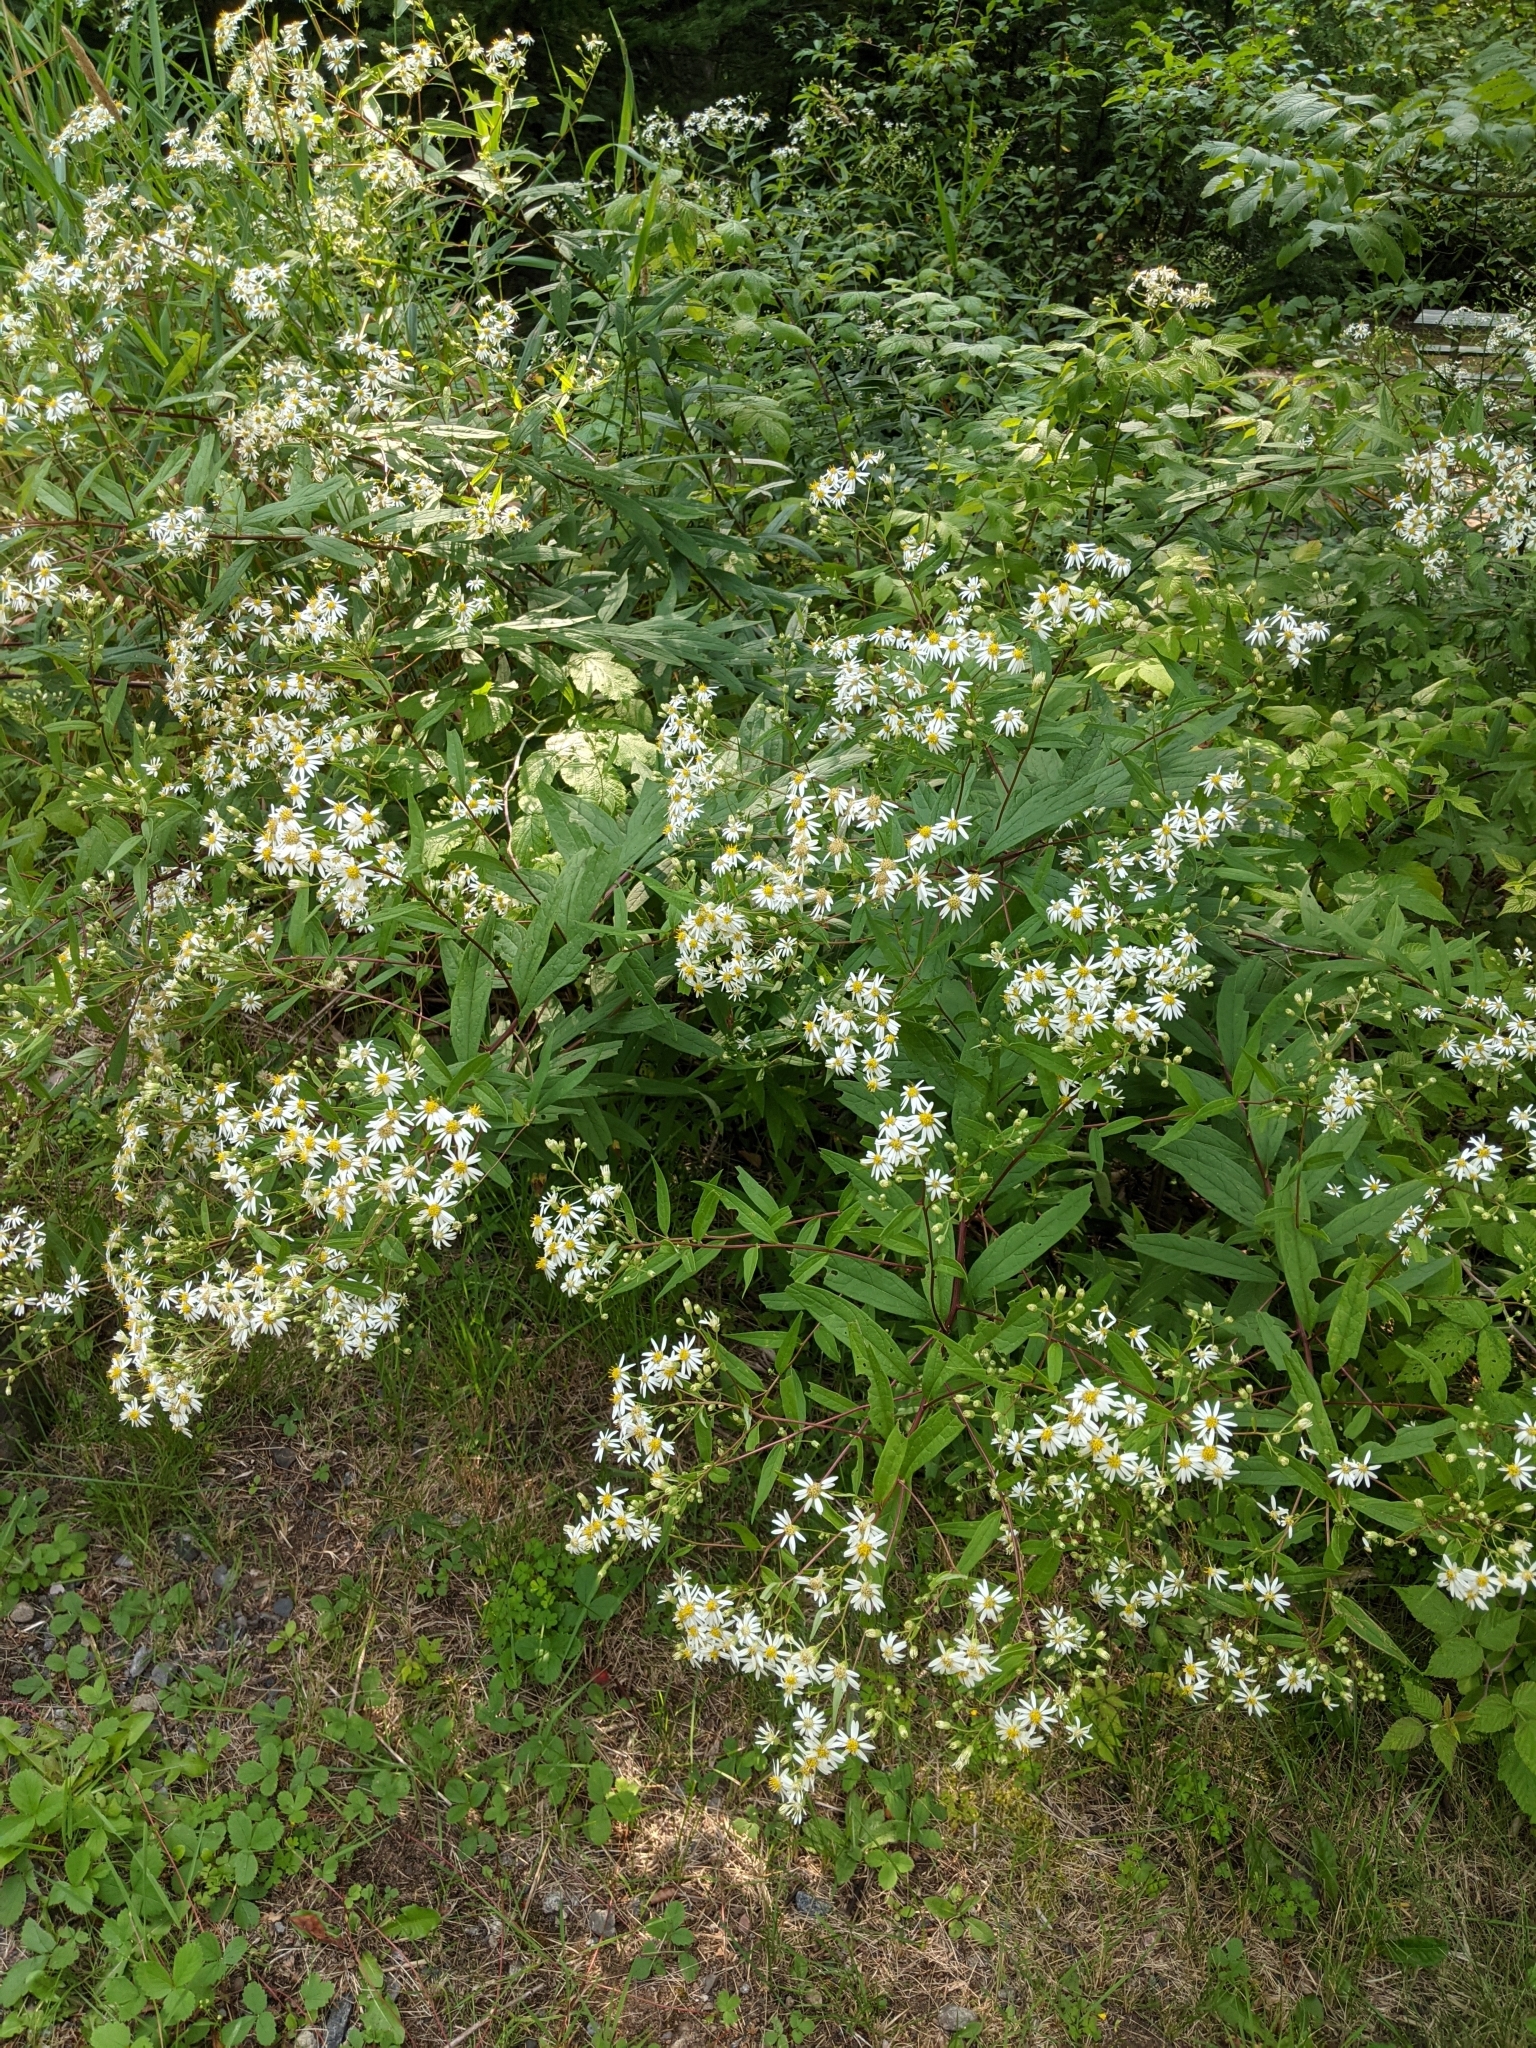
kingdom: Plantae
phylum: Tracheophyta
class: Magnoliopsida
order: Asterales
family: Asteraceae
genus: Doellingeria
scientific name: Doellingeria umbellata
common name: Flat-top white aster
